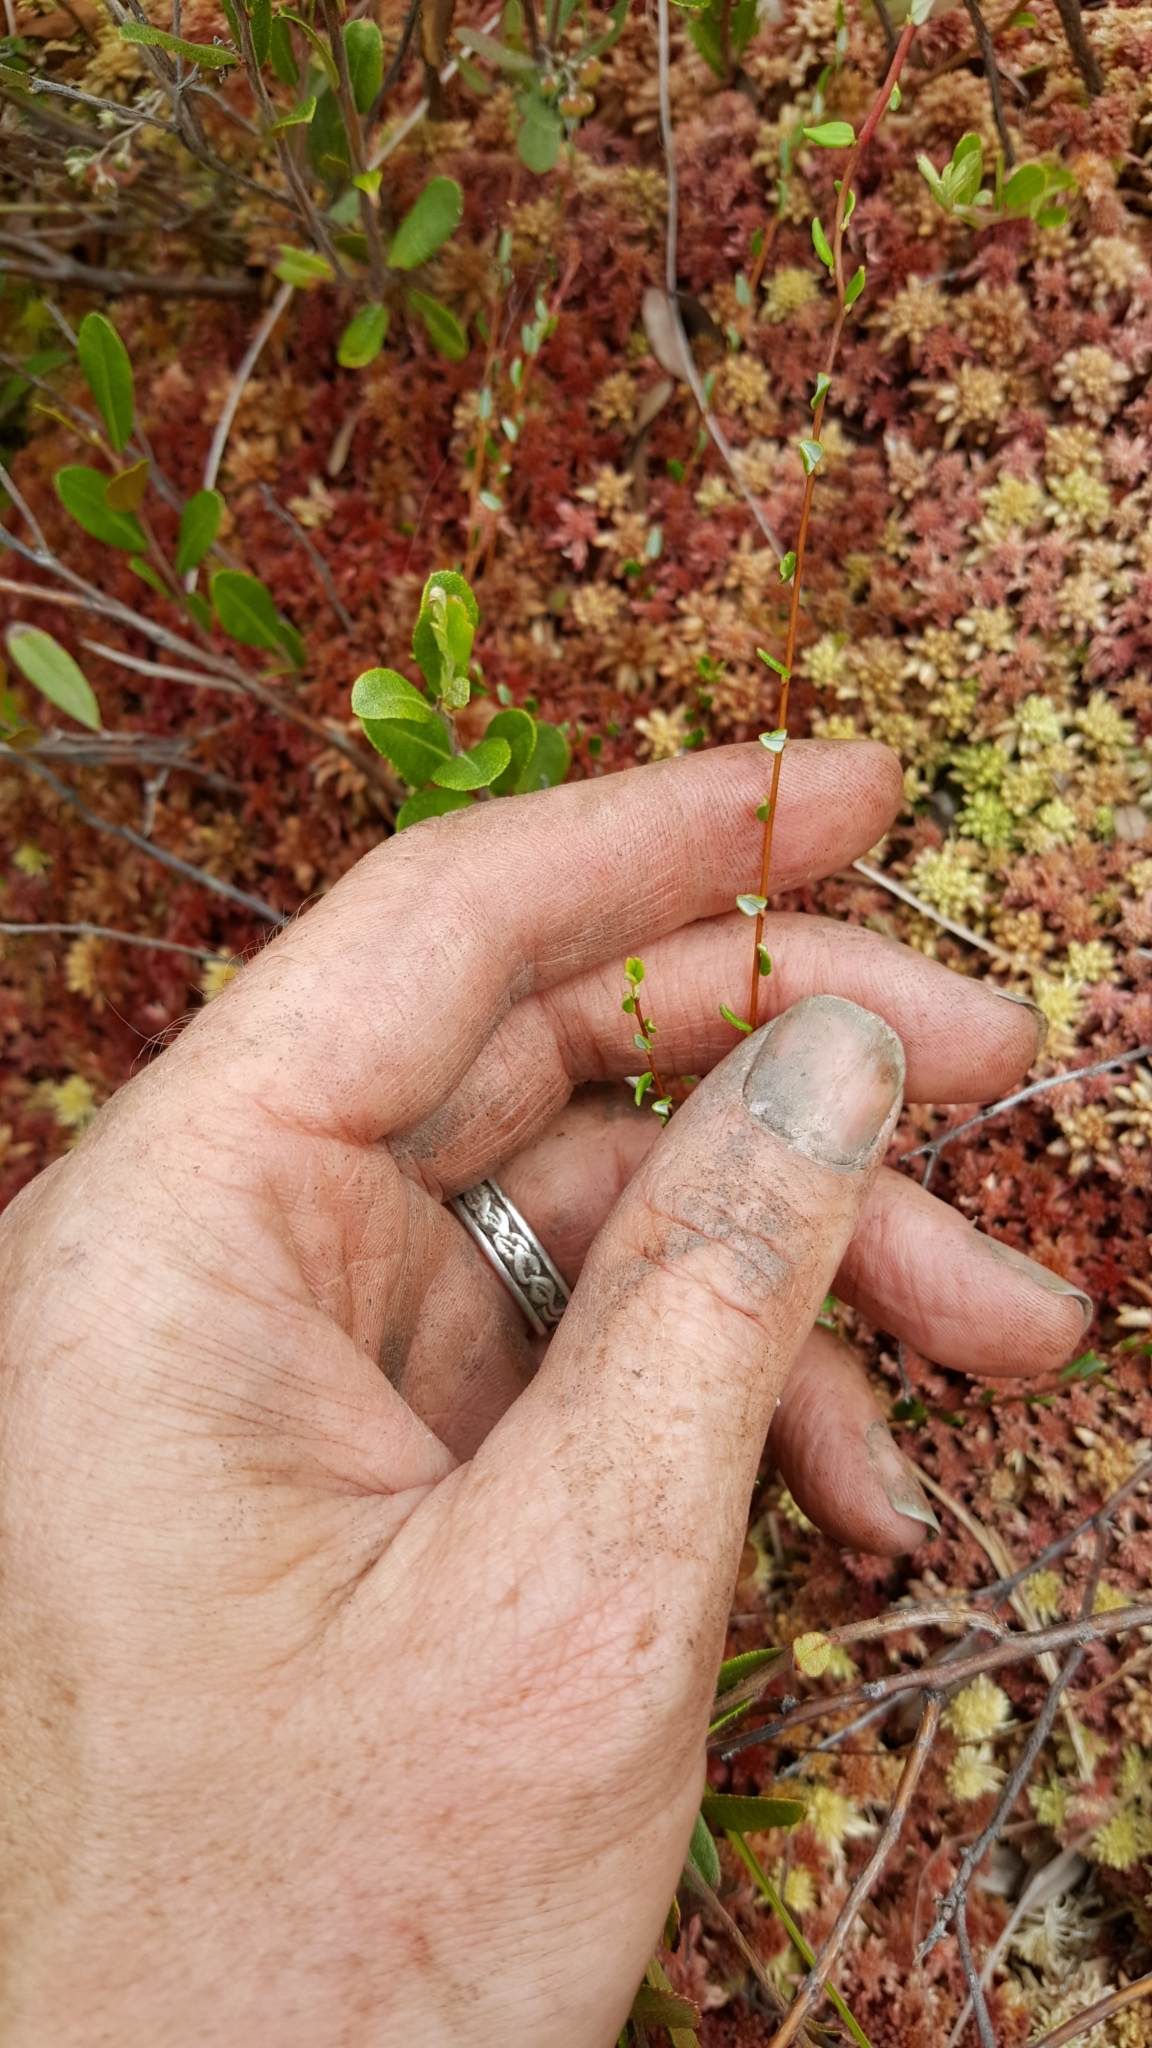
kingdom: Plantae
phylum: Tracheophyta
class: Magnoliopsida
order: Ericales
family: Ericaceae
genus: Vaccinium
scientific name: Vaccinium oxycoccos
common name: Cranberry
